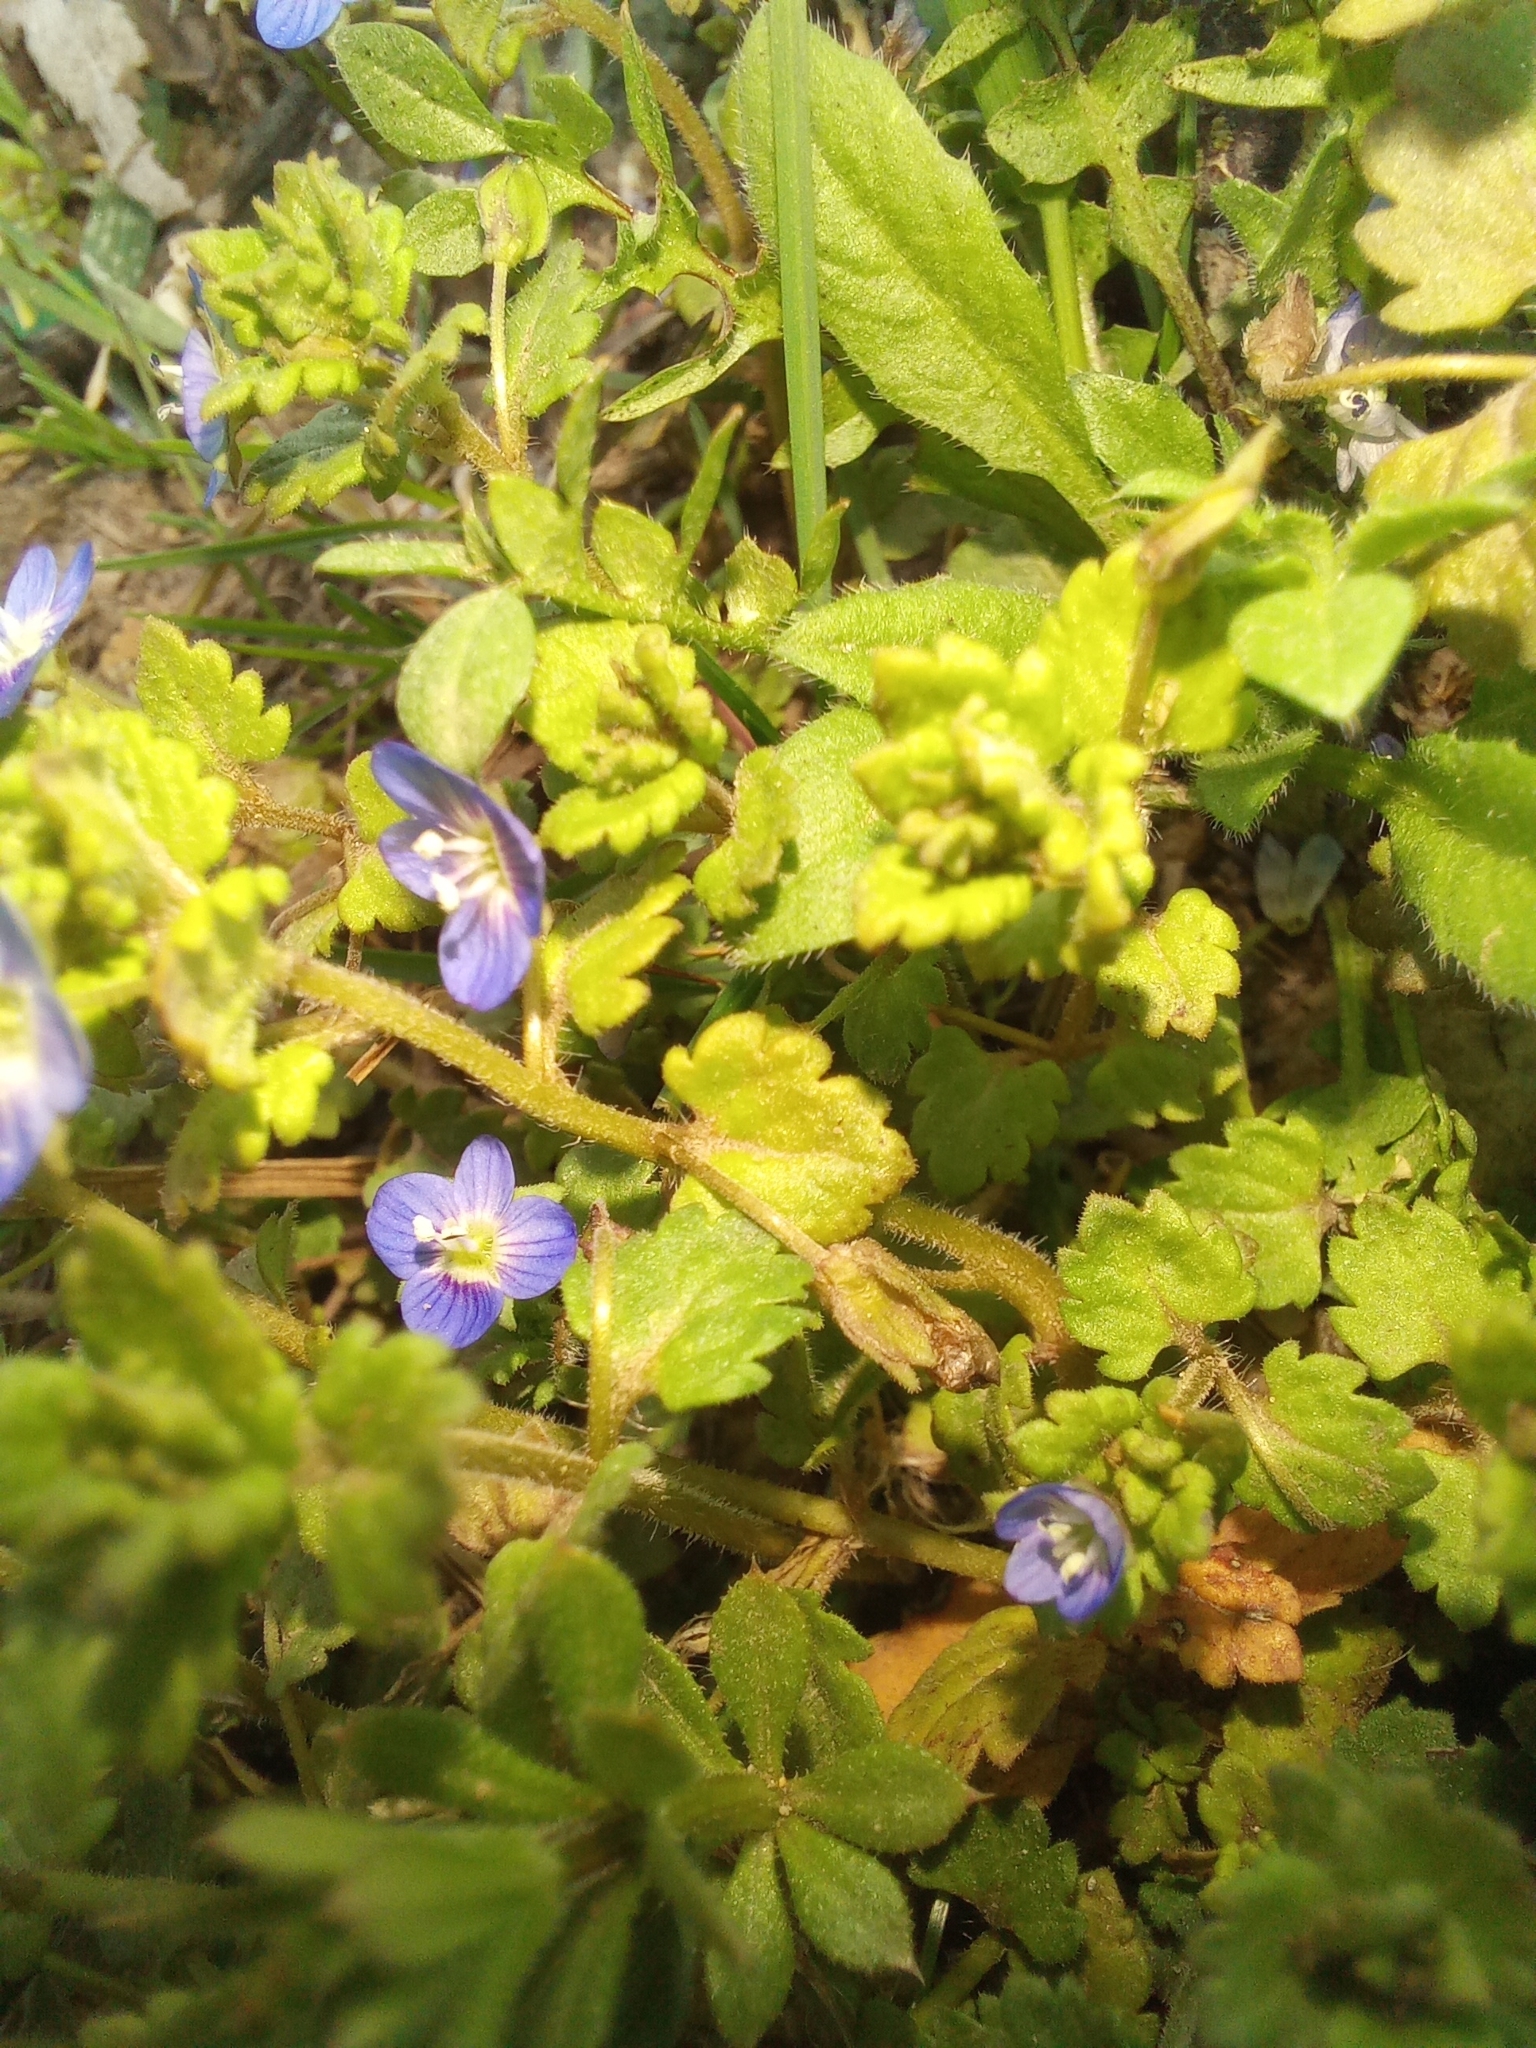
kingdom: Plantae
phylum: Tracheophyta
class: Magnoliopsida
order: Lamiales
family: Plantaginaceae
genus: Veronica
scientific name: Veronica persica
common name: Common field-speedwell
